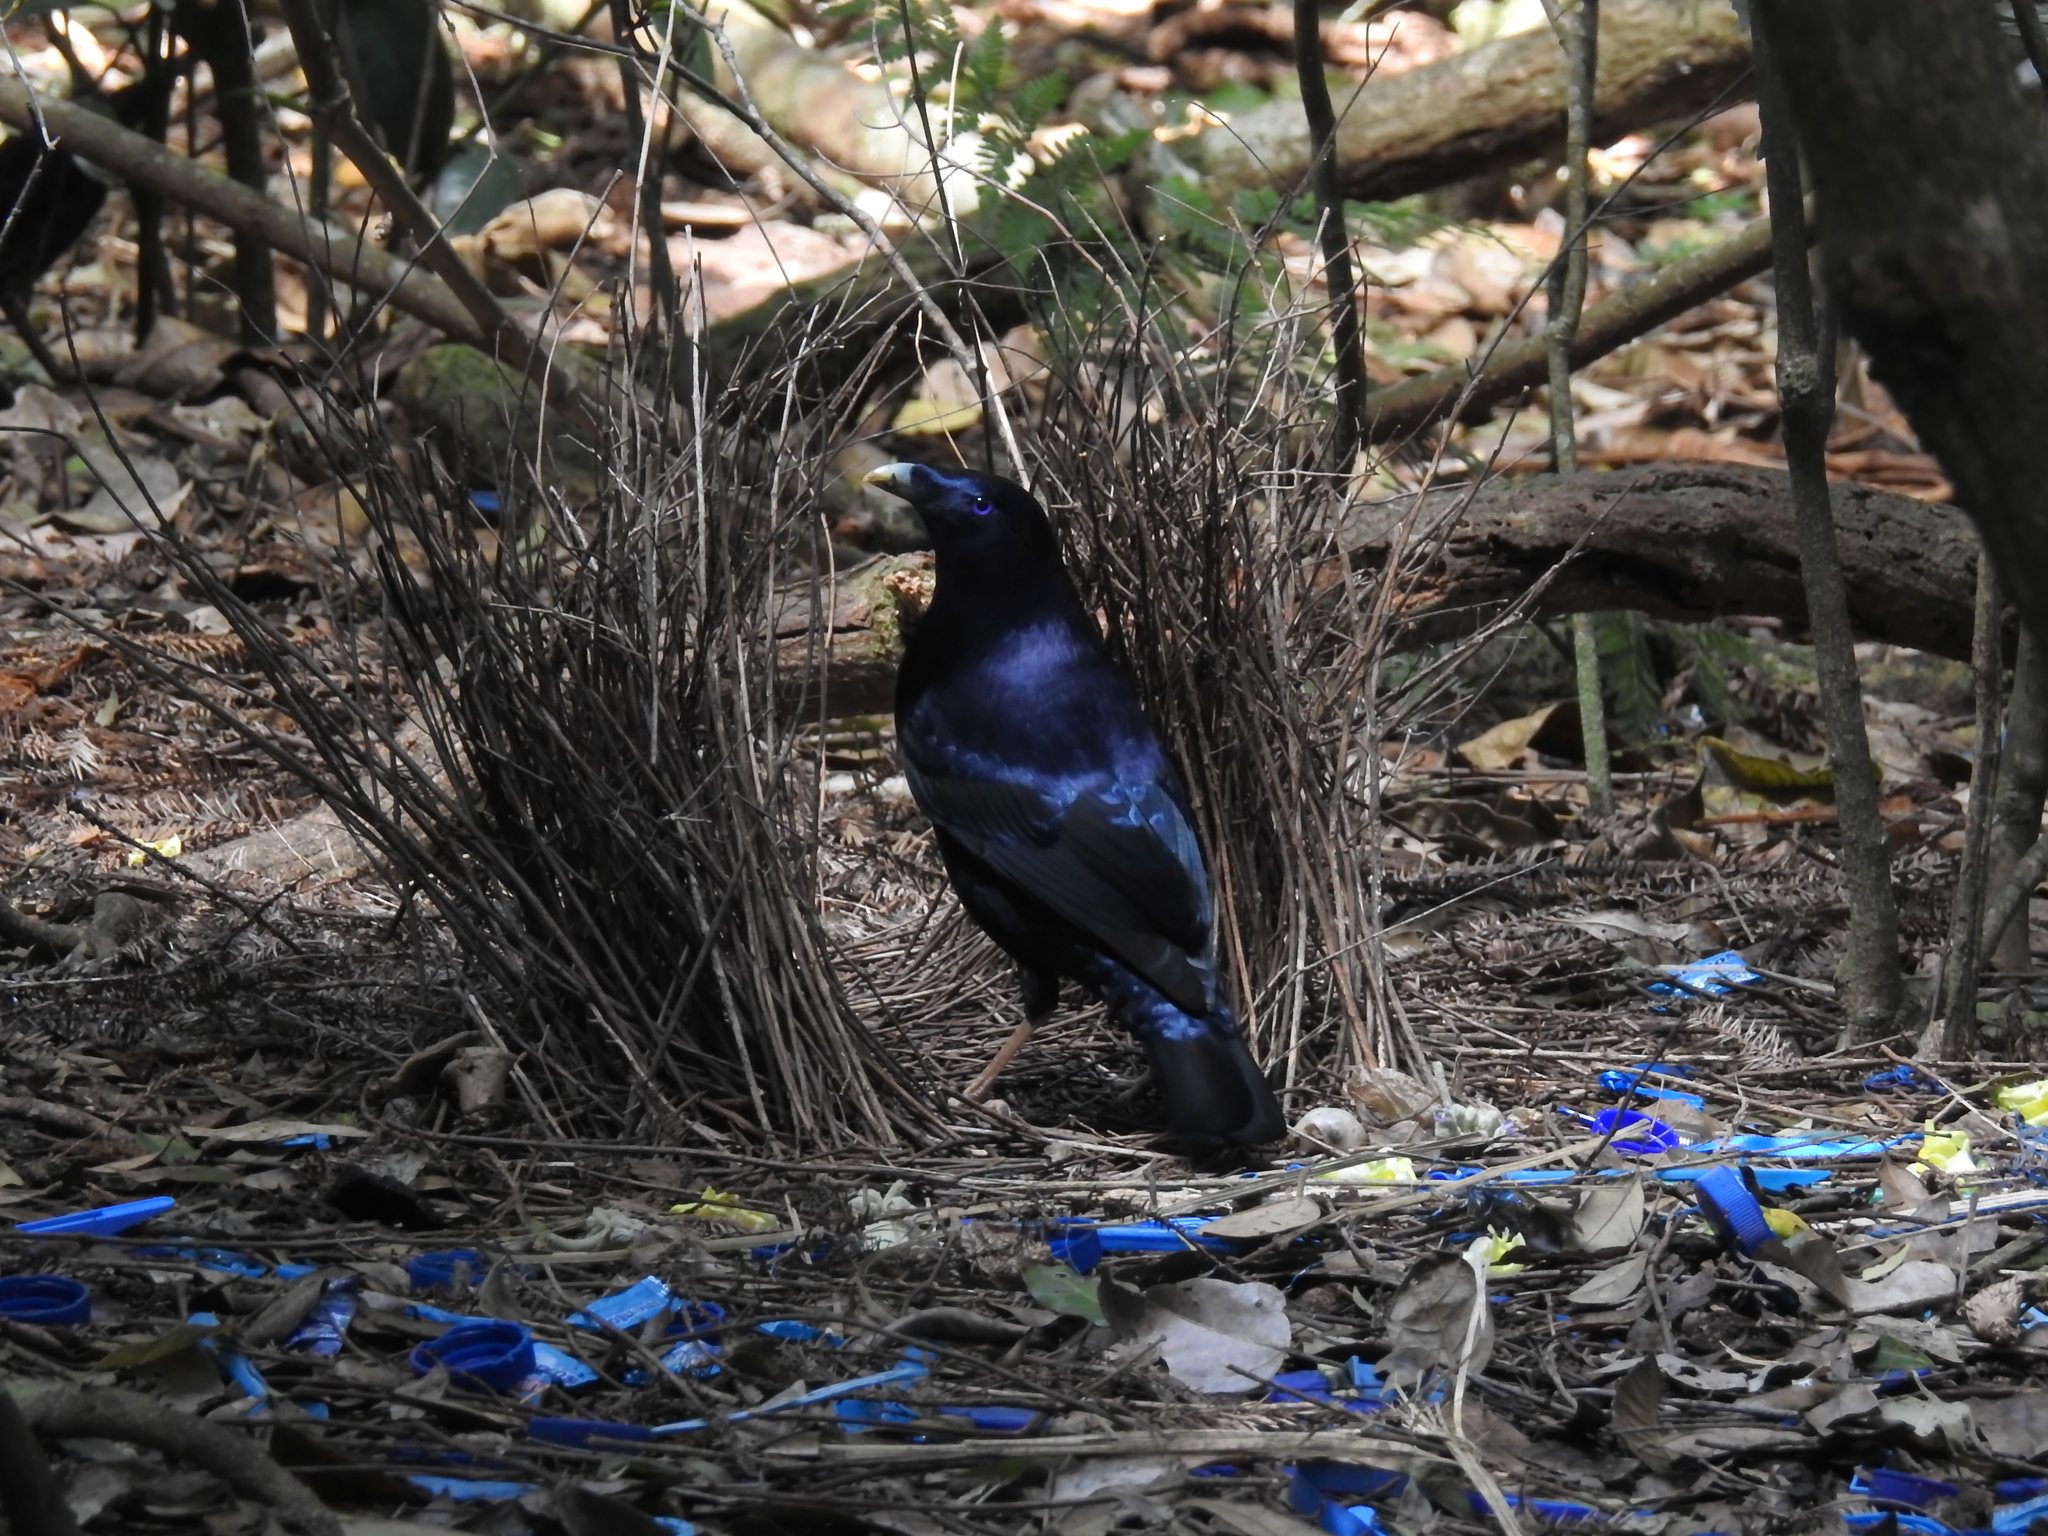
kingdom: Animalia
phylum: Chordata
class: Aves
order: Passeriformes
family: Ptilonorhynchidae
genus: Ptilonorhynchus
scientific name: Ptilonorhynchus violaceus
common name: Satin bowerbird
